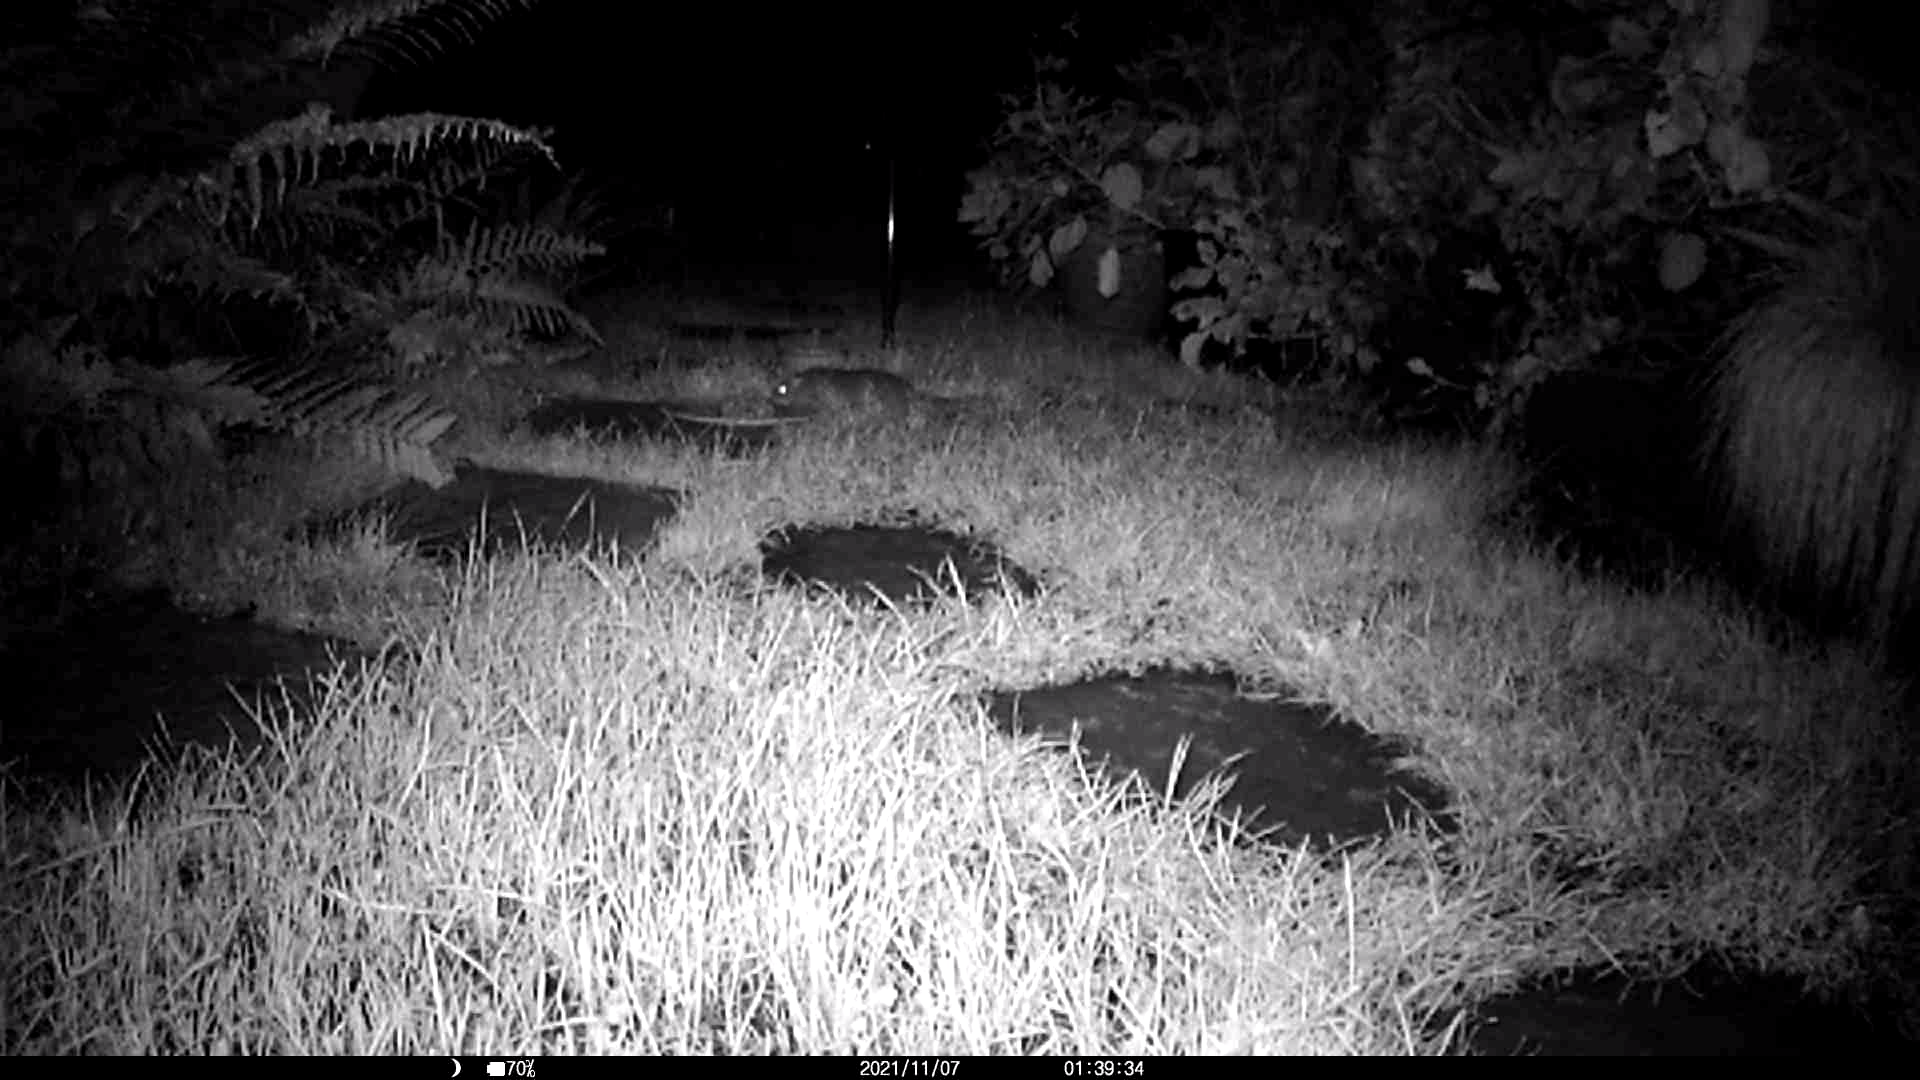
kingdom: Animalia
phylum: Chordata
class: Mammalia
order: Rodentia
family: Muridae
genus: Rattus
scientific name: Rattus norvegicus
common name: Brown rat
